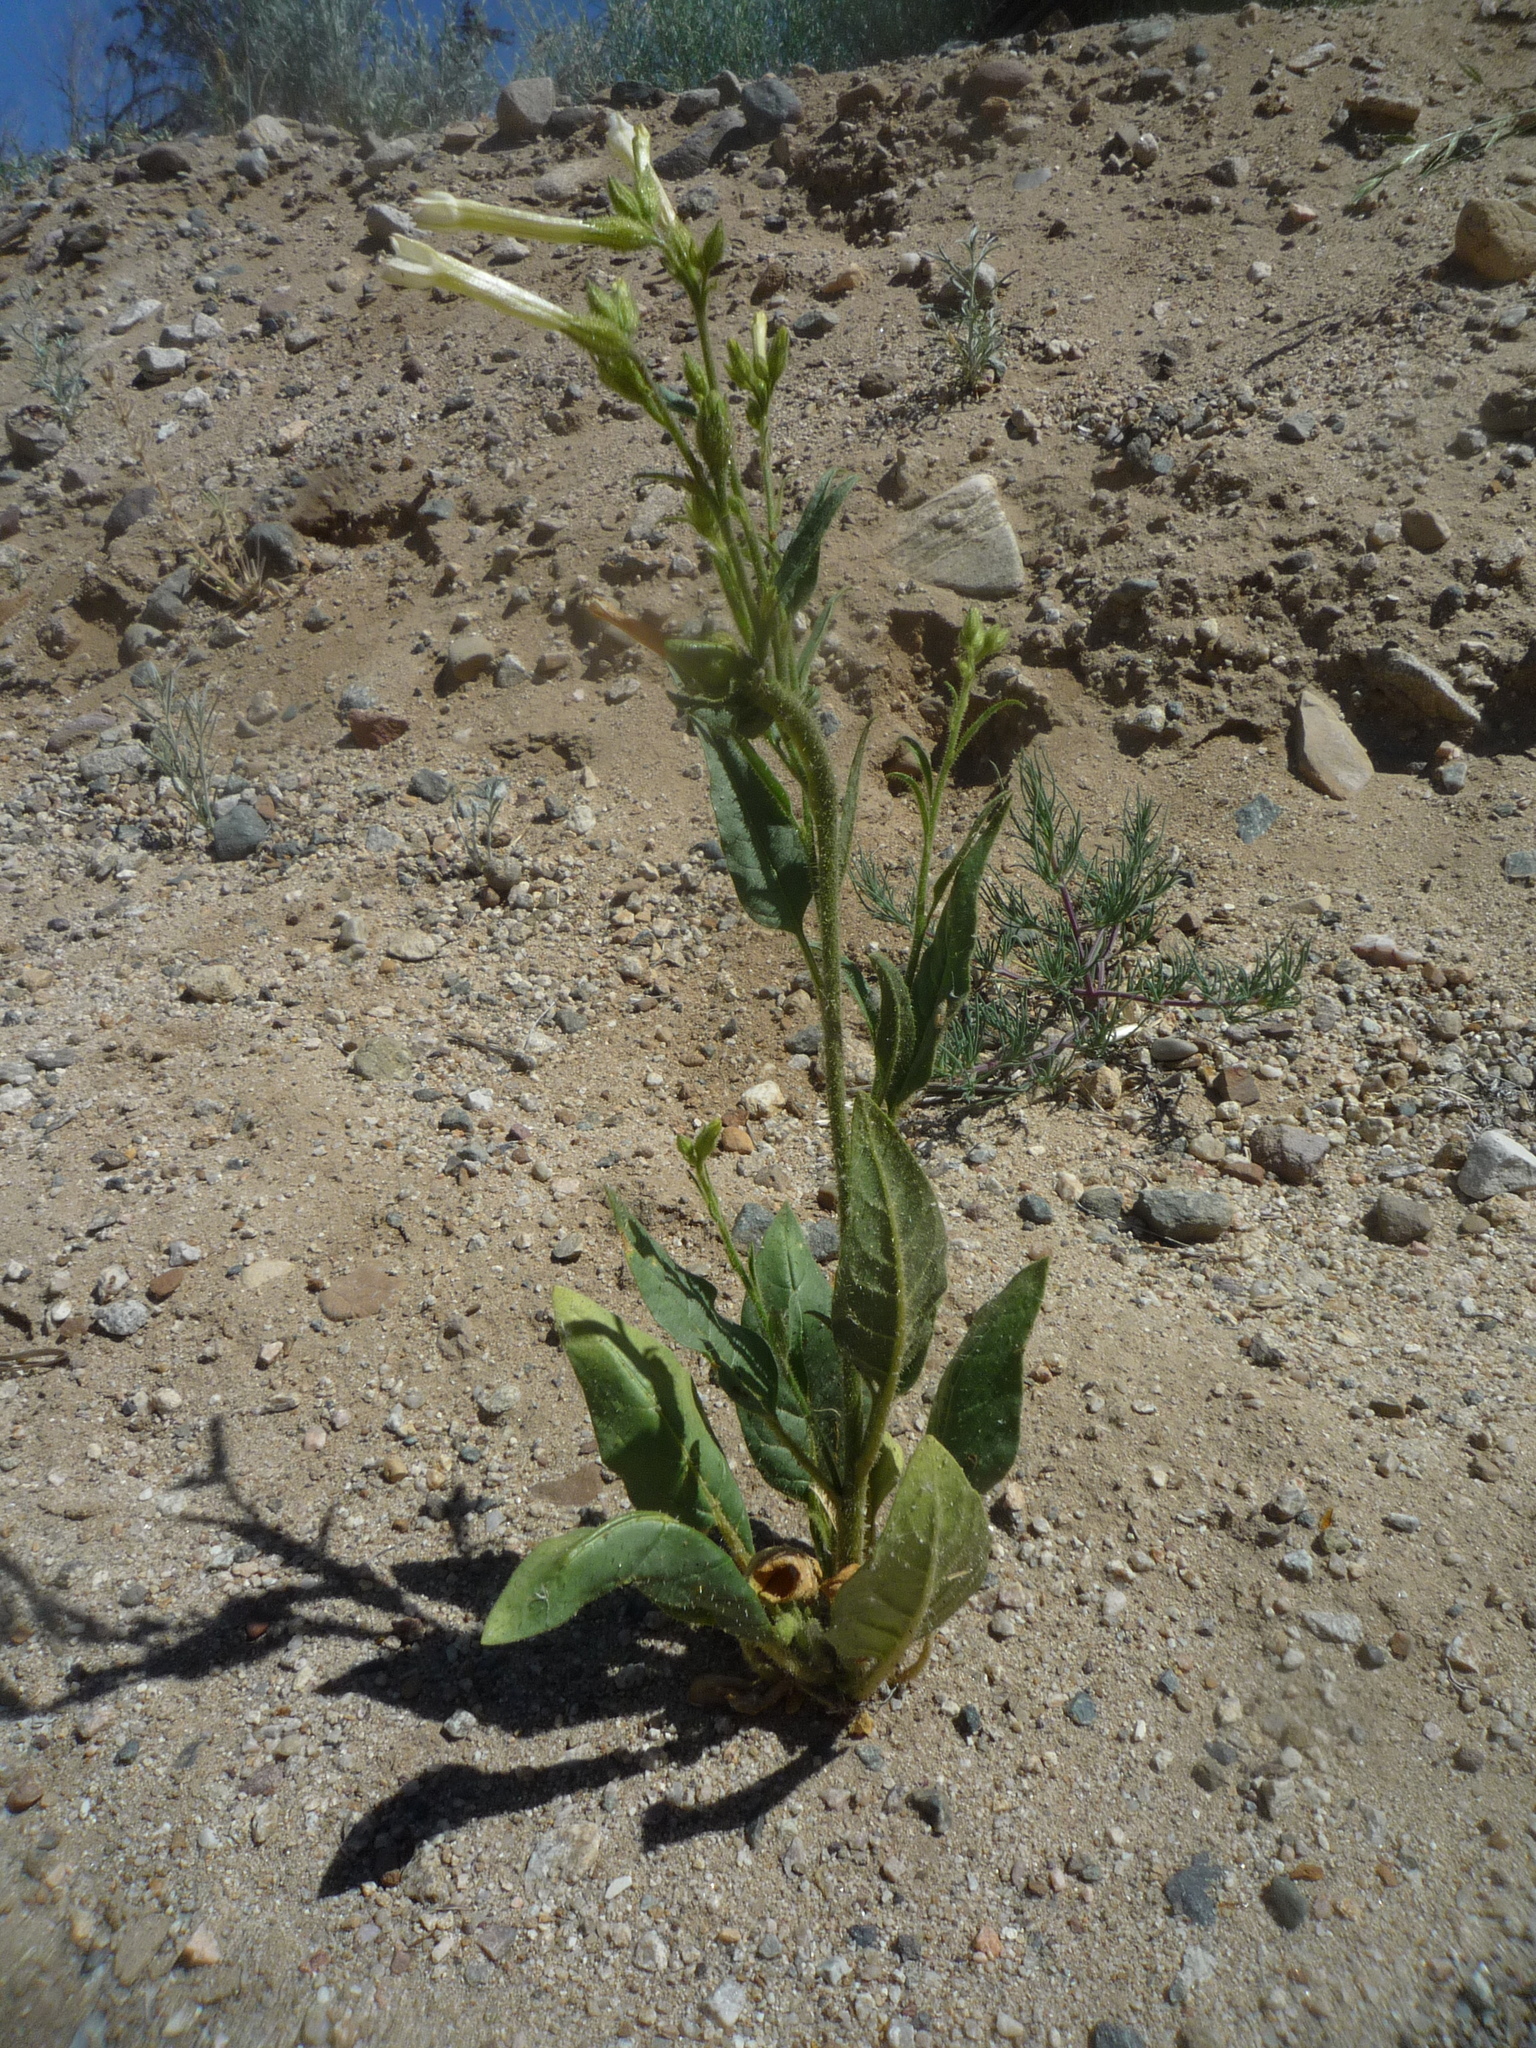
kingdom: Plantae
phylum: Tracheophyta
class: Magnoliopsida
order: Solanales
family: Solanaceae
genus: Nicotiana
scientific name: Nicotiana attenuata
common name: Coyote tobacco
